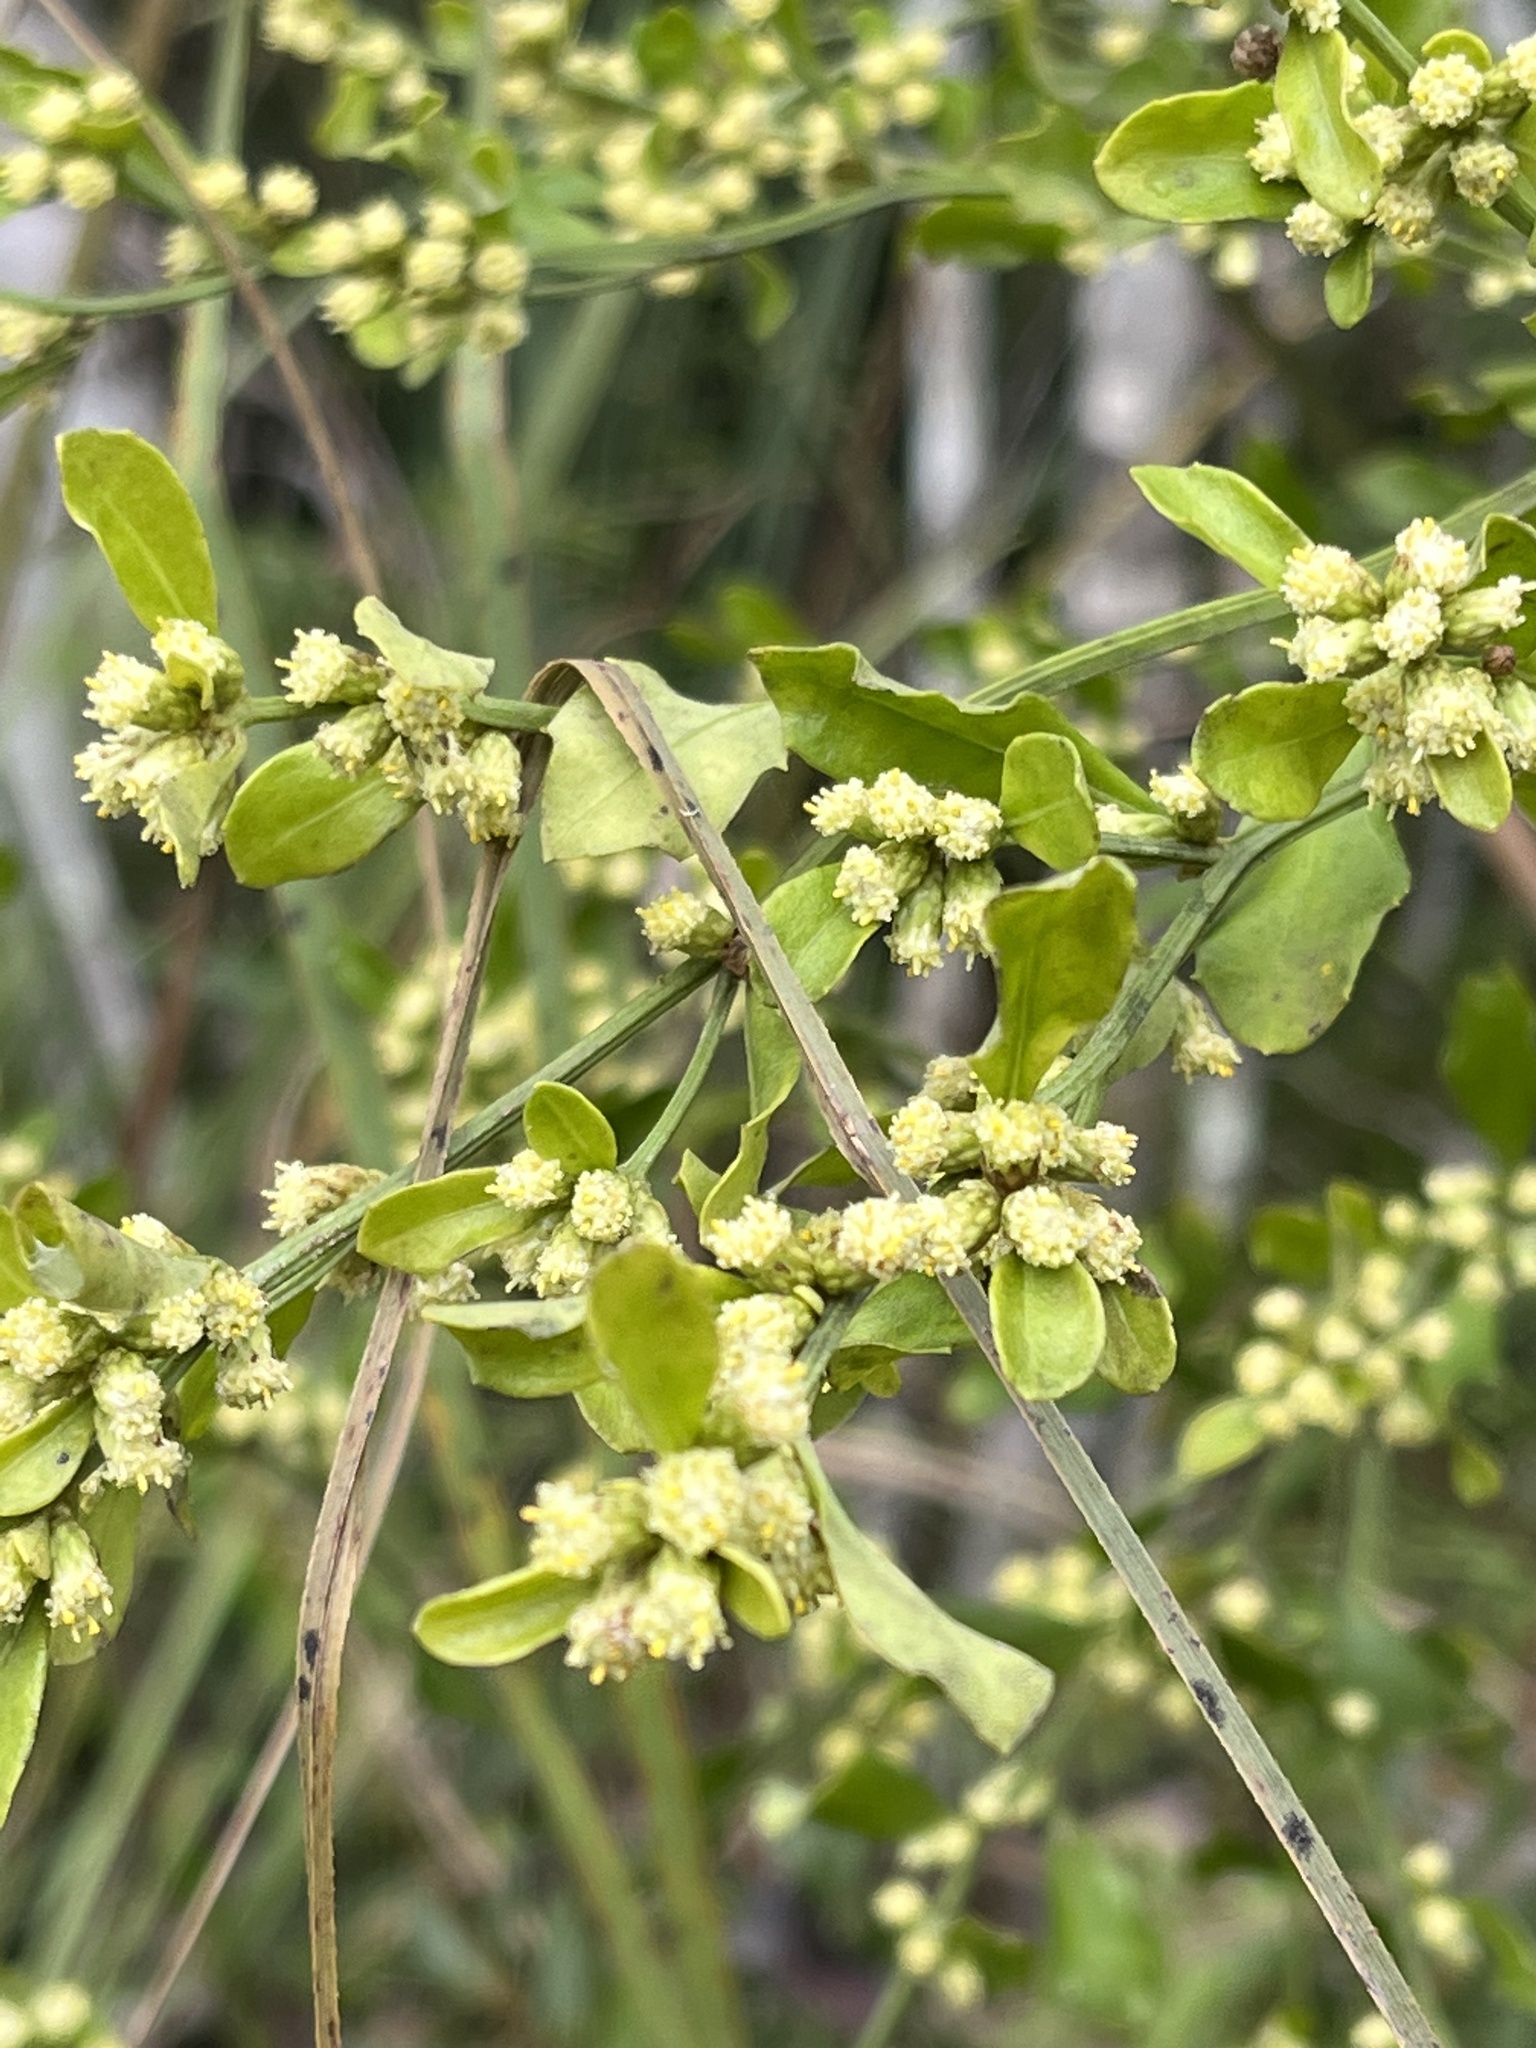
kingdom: Plantae
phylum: Tracheophyta
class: Magnoliopsida
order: Asterales
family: Asteraceae
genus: Baccharis
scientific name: Baccharis glomeruliflora
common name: Silverling groundsel bush
